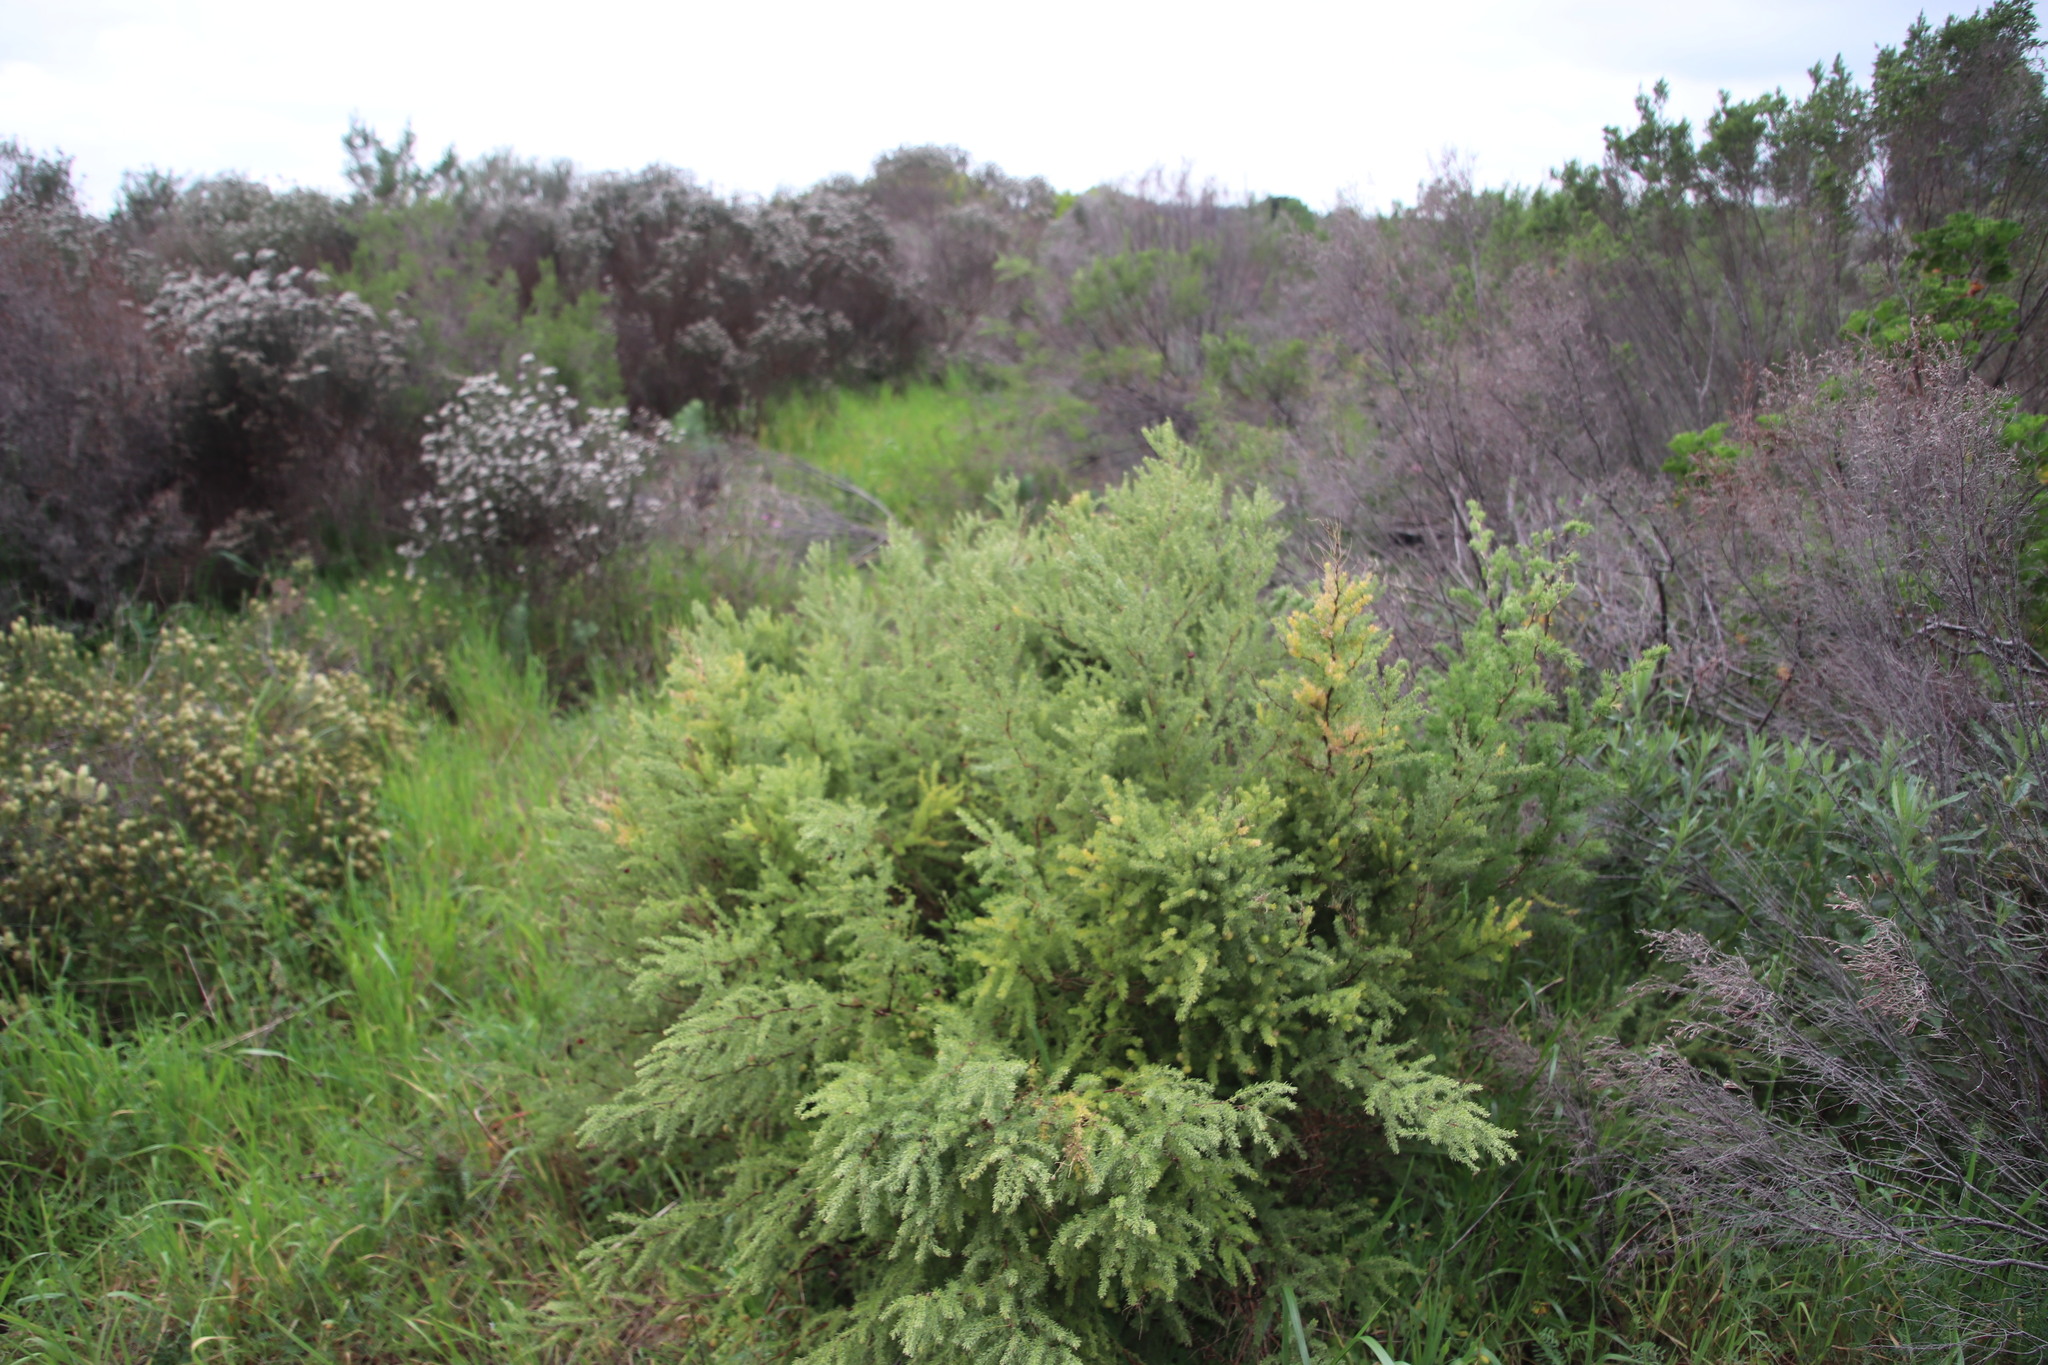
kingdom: Plantae
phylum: Tracheophyta
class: Liliopsida
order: Asparagales
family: Asparagaceae
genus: Asparagus
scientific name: Asparagus rubicundus
